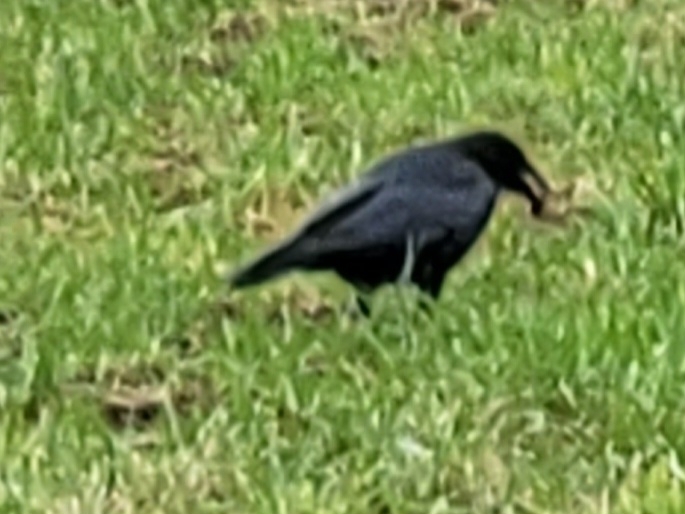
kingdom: Animalia
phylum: Chordata
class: Aves
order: Passeriformes
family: Corvidae
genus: Corvus
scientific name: Corvus corone
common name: Carrion crow
